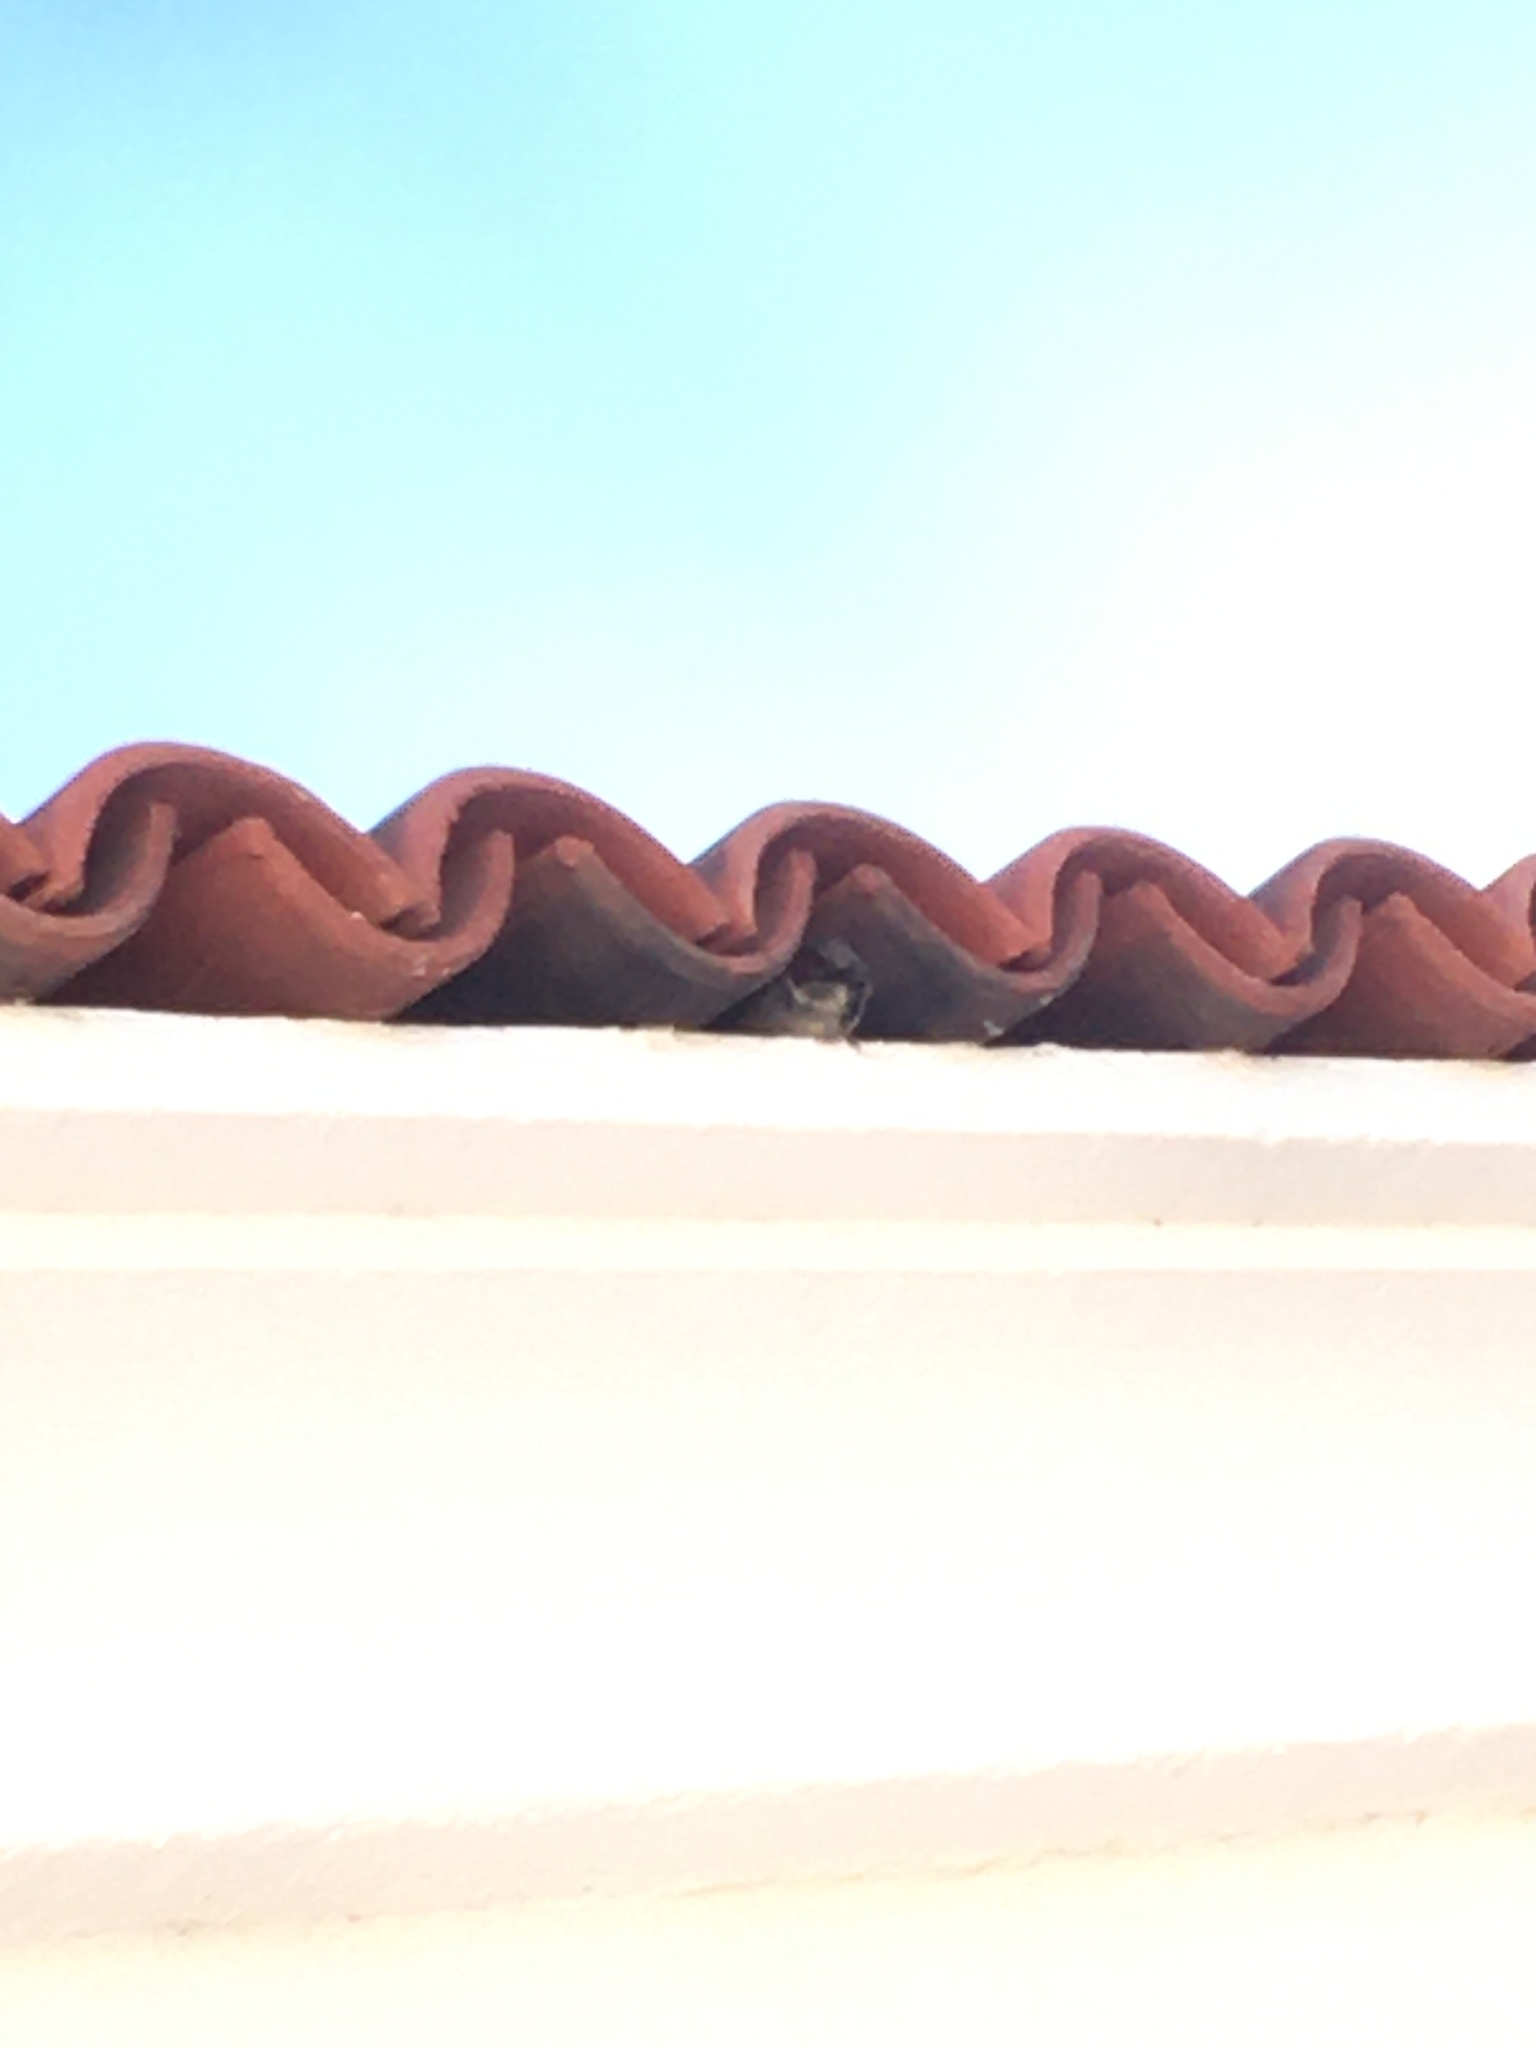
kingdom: Animalia
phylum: Chordata
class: Aves
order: Passeriformes
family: Passeridae
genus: Passer
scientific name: Passer domesticus
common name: House sparrow
